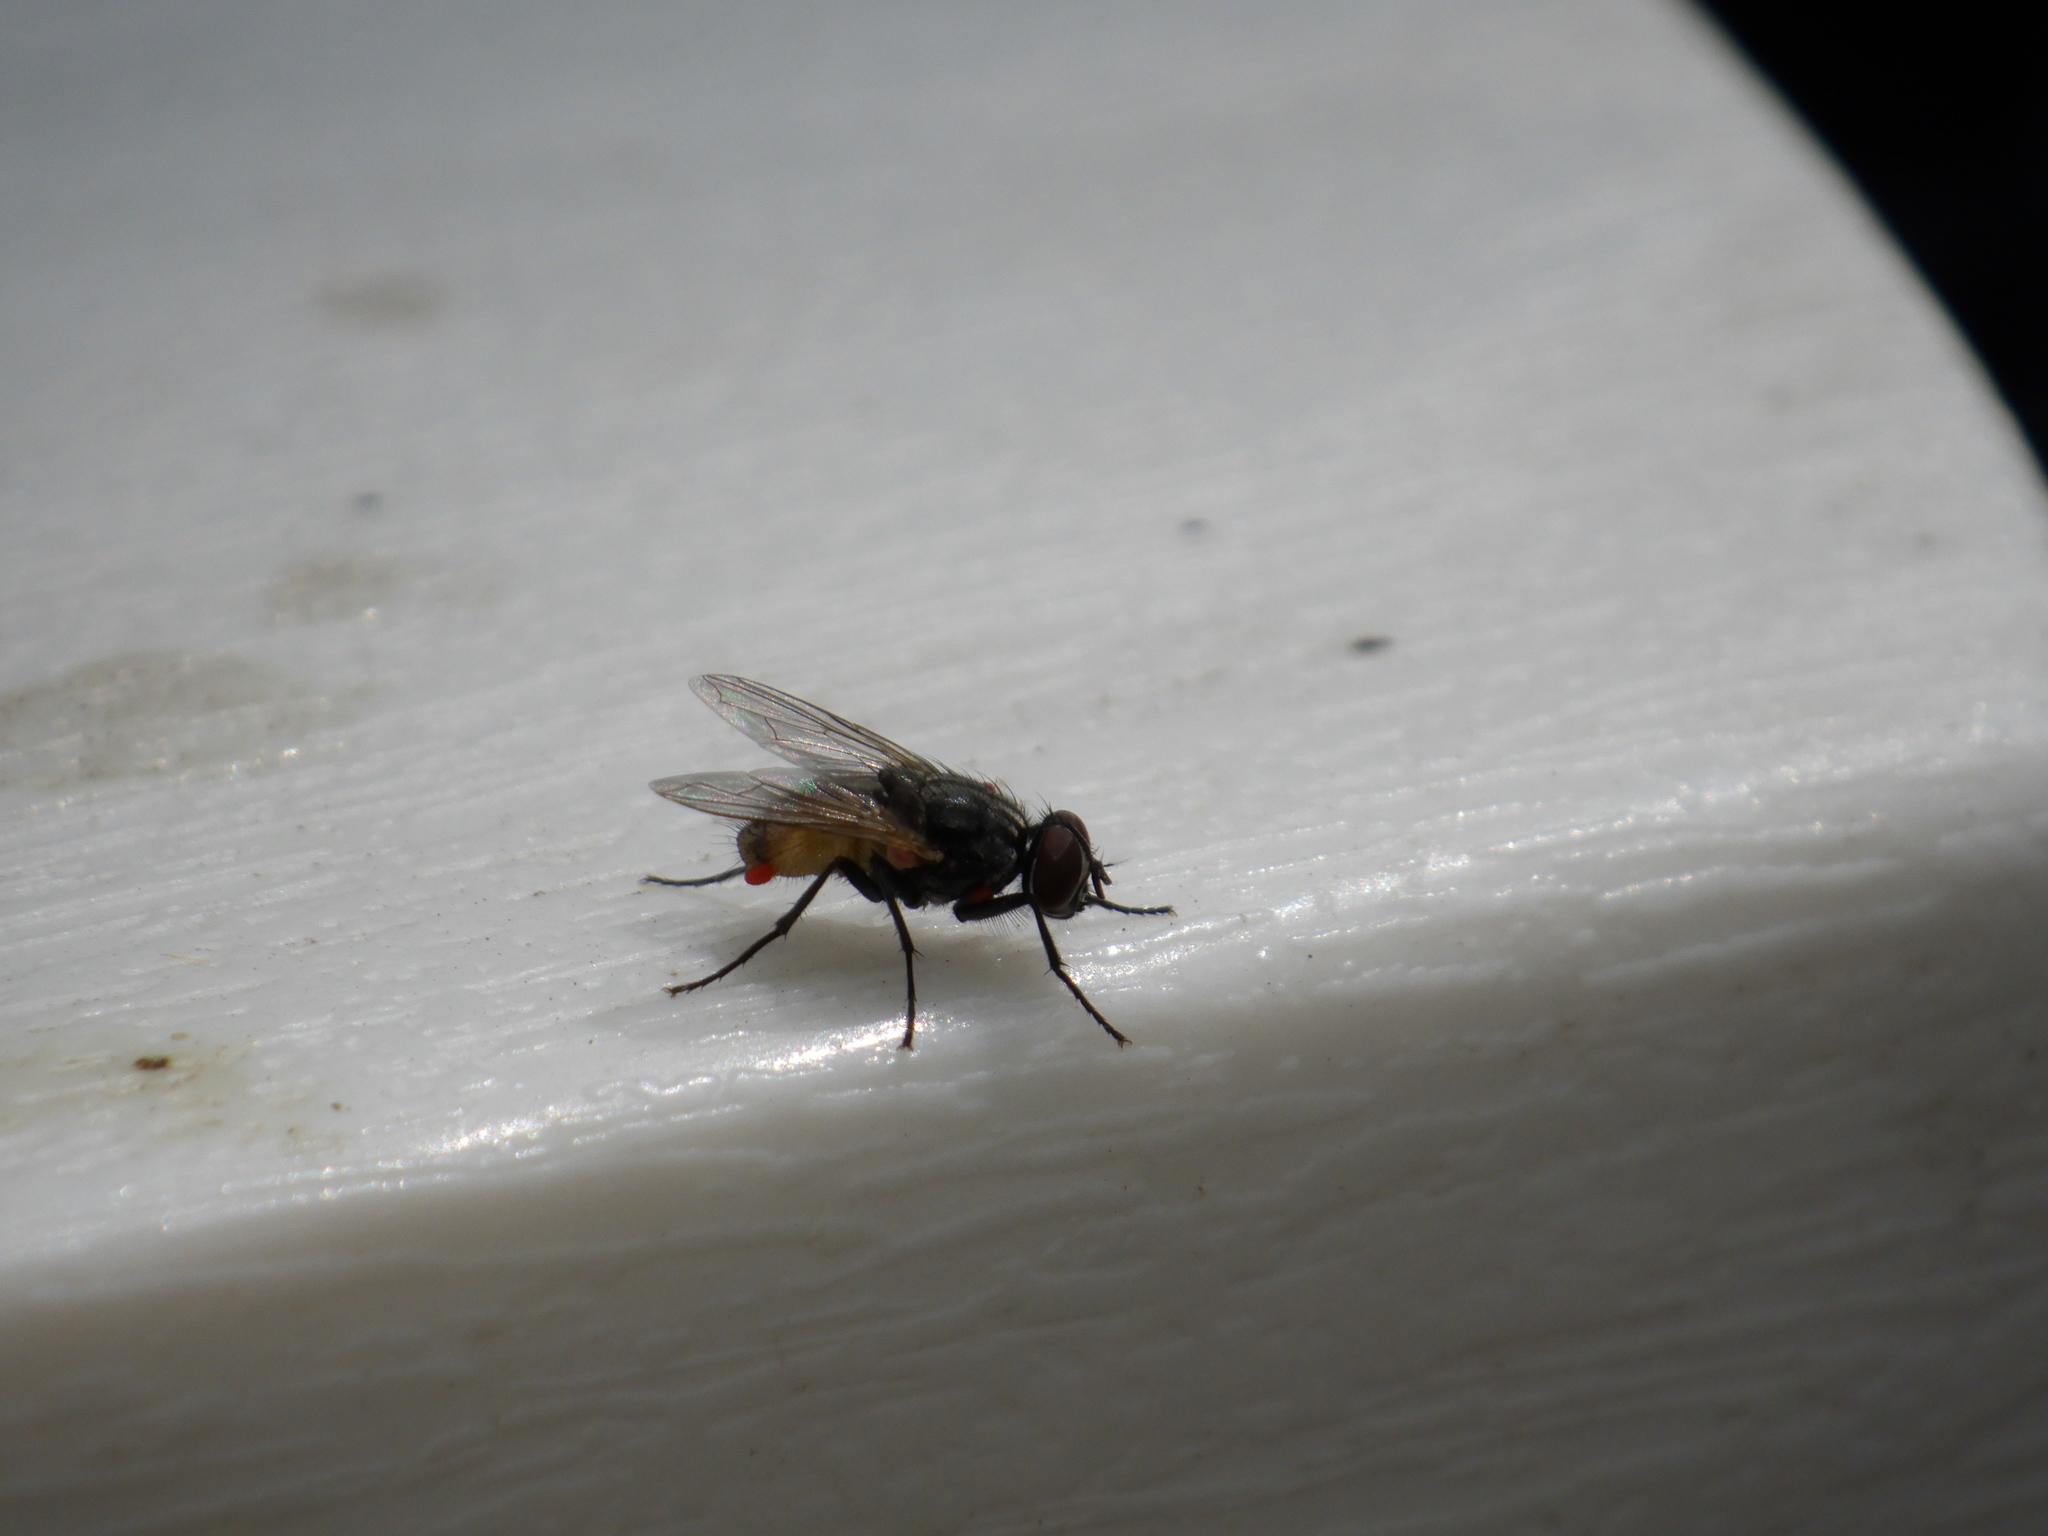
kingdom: Animalia
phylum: Arthropoda
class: Insecta
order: Diptera
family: Muscidae
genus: Musca
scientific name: Musca domestica
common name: House fly
